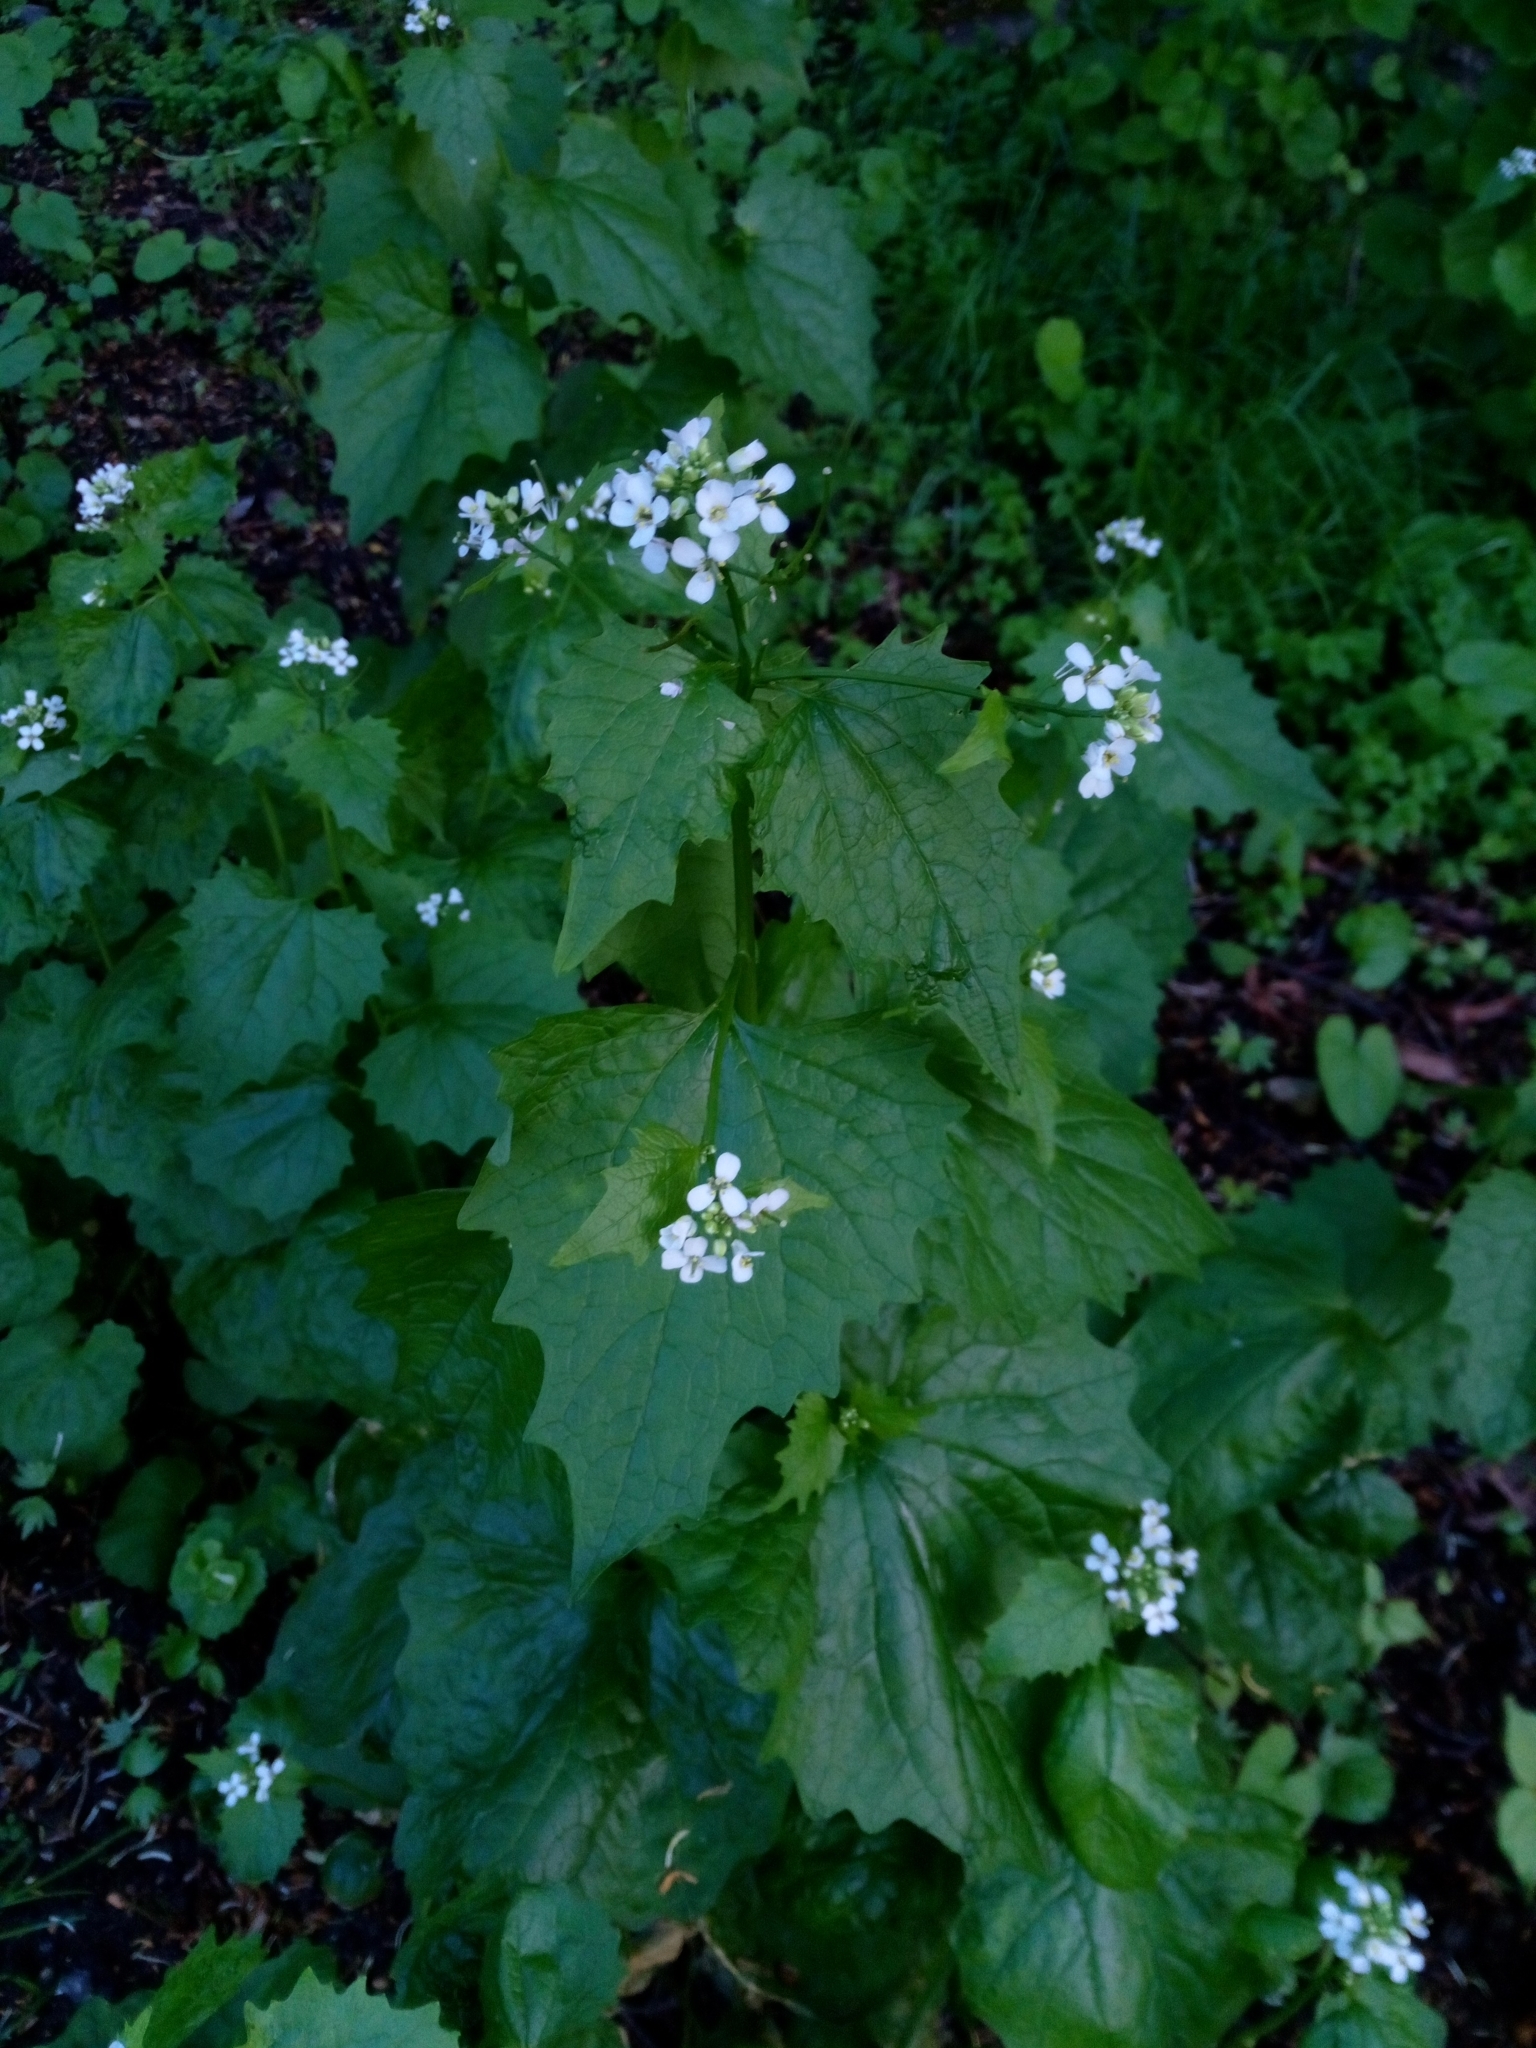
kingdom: Plantae
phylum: Tracheophyta
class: Magnoliopsida
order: Brassicales
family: Brassicaceae
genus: Alliaria
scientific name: Alliaria petiolata
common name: Garlic mustard
